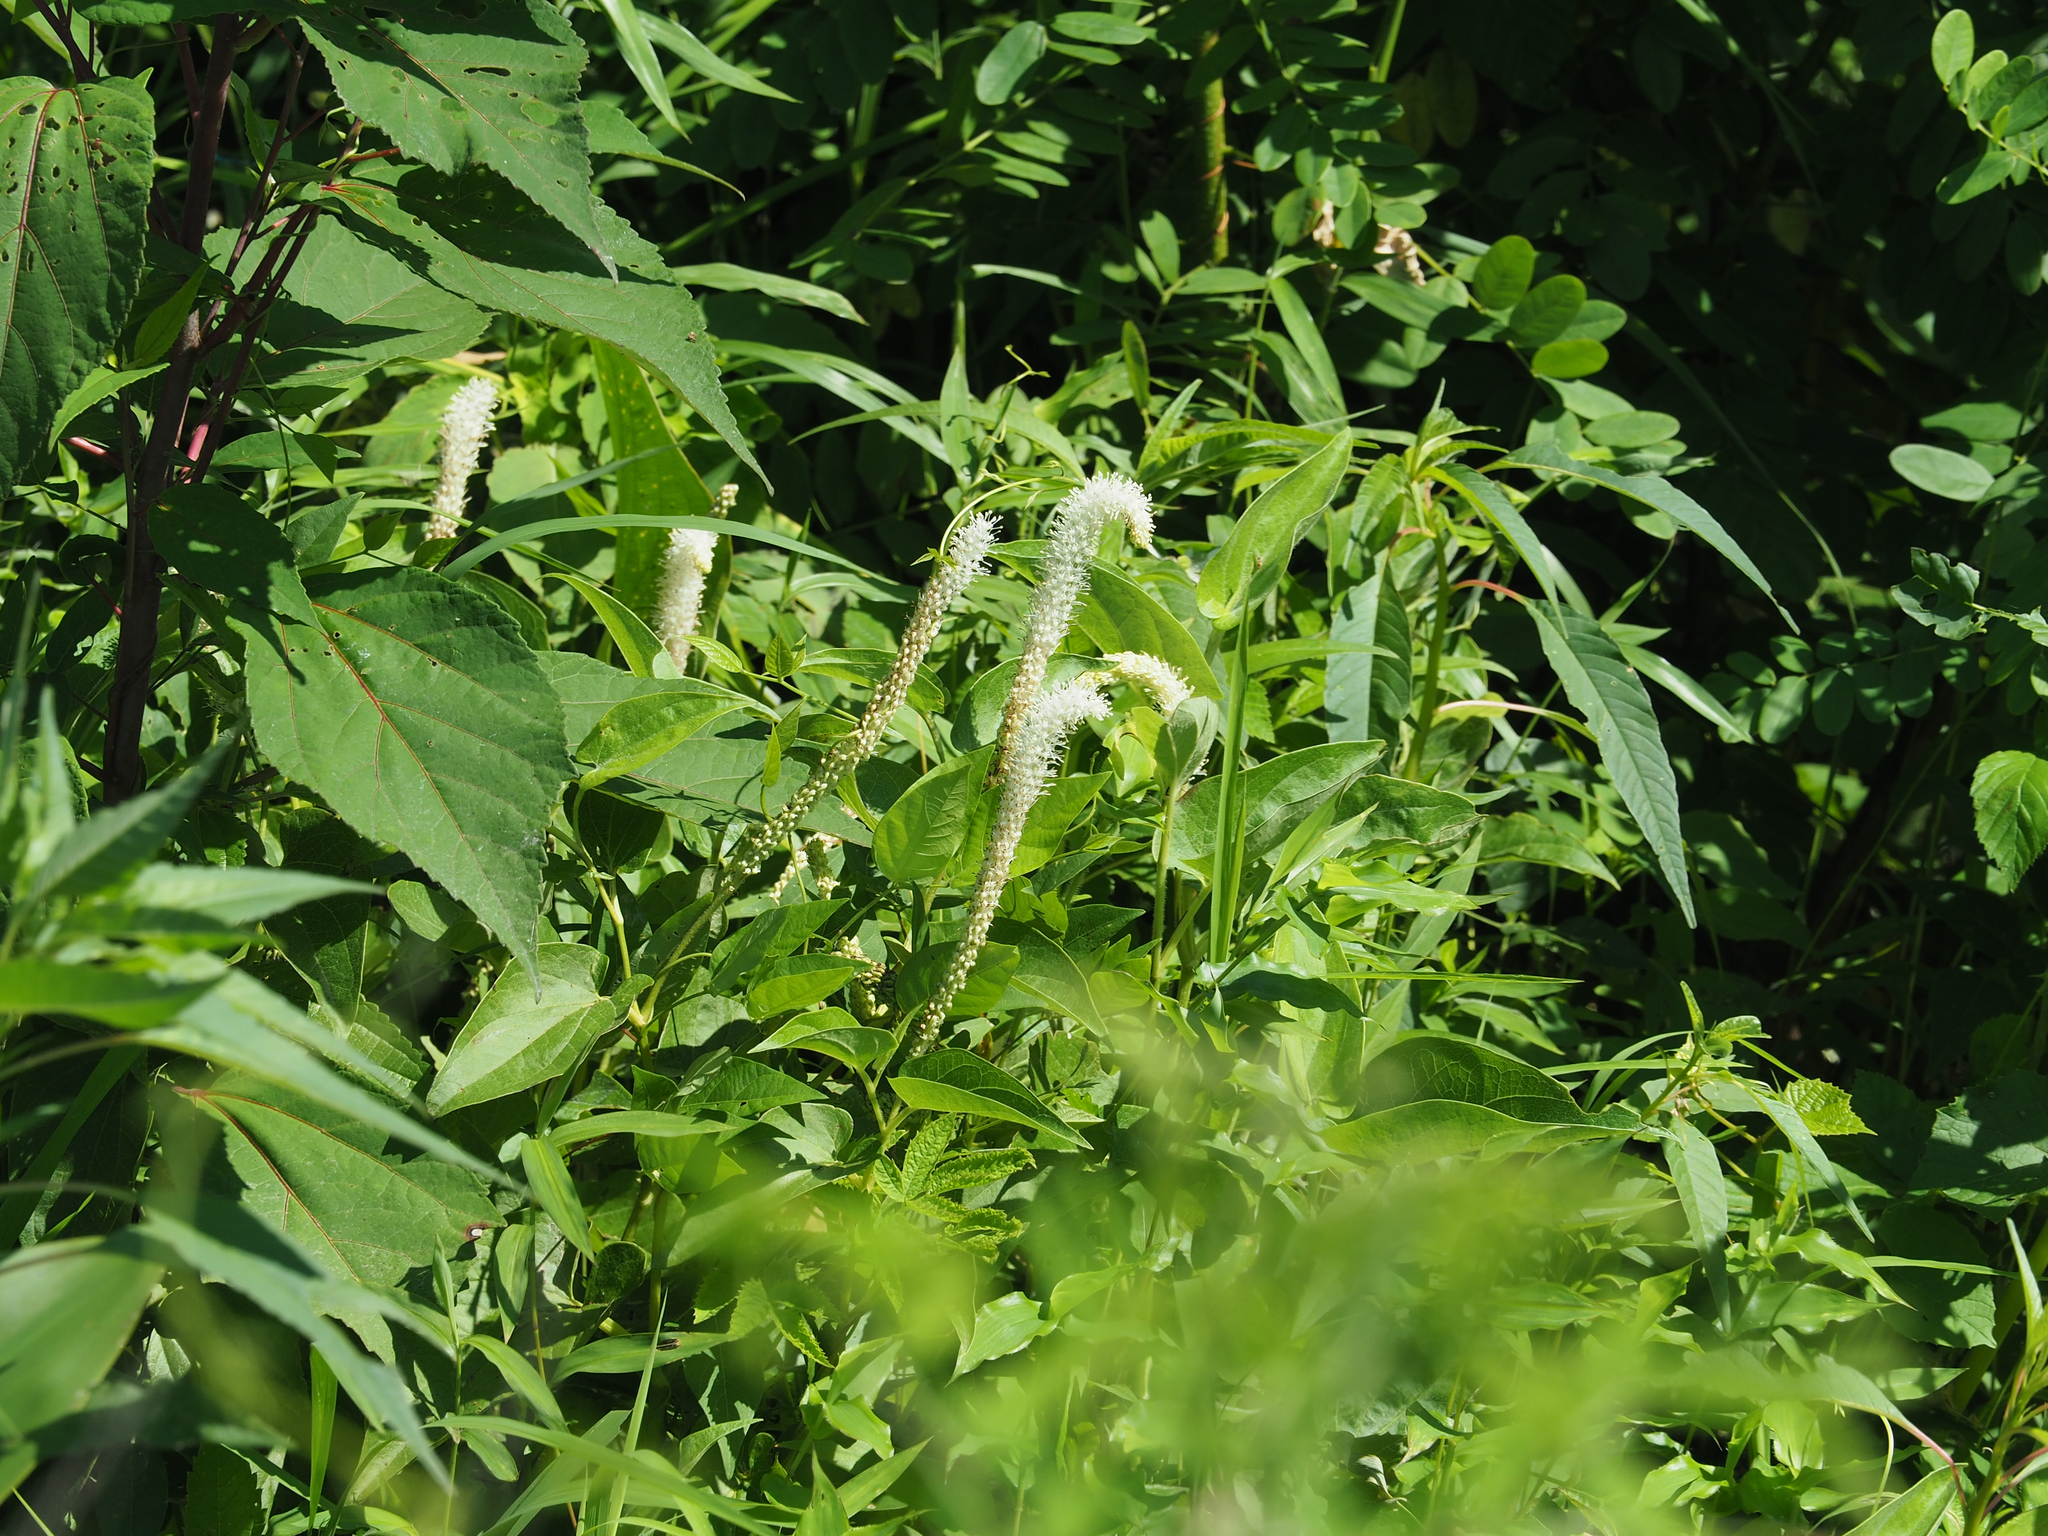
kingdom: Plantae
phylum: Tracheophyta
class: Magnoliopsida
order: Piperales
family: Saururaceae
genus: Saururus
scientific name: Saururus cernuus
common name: Lizard's-tail
